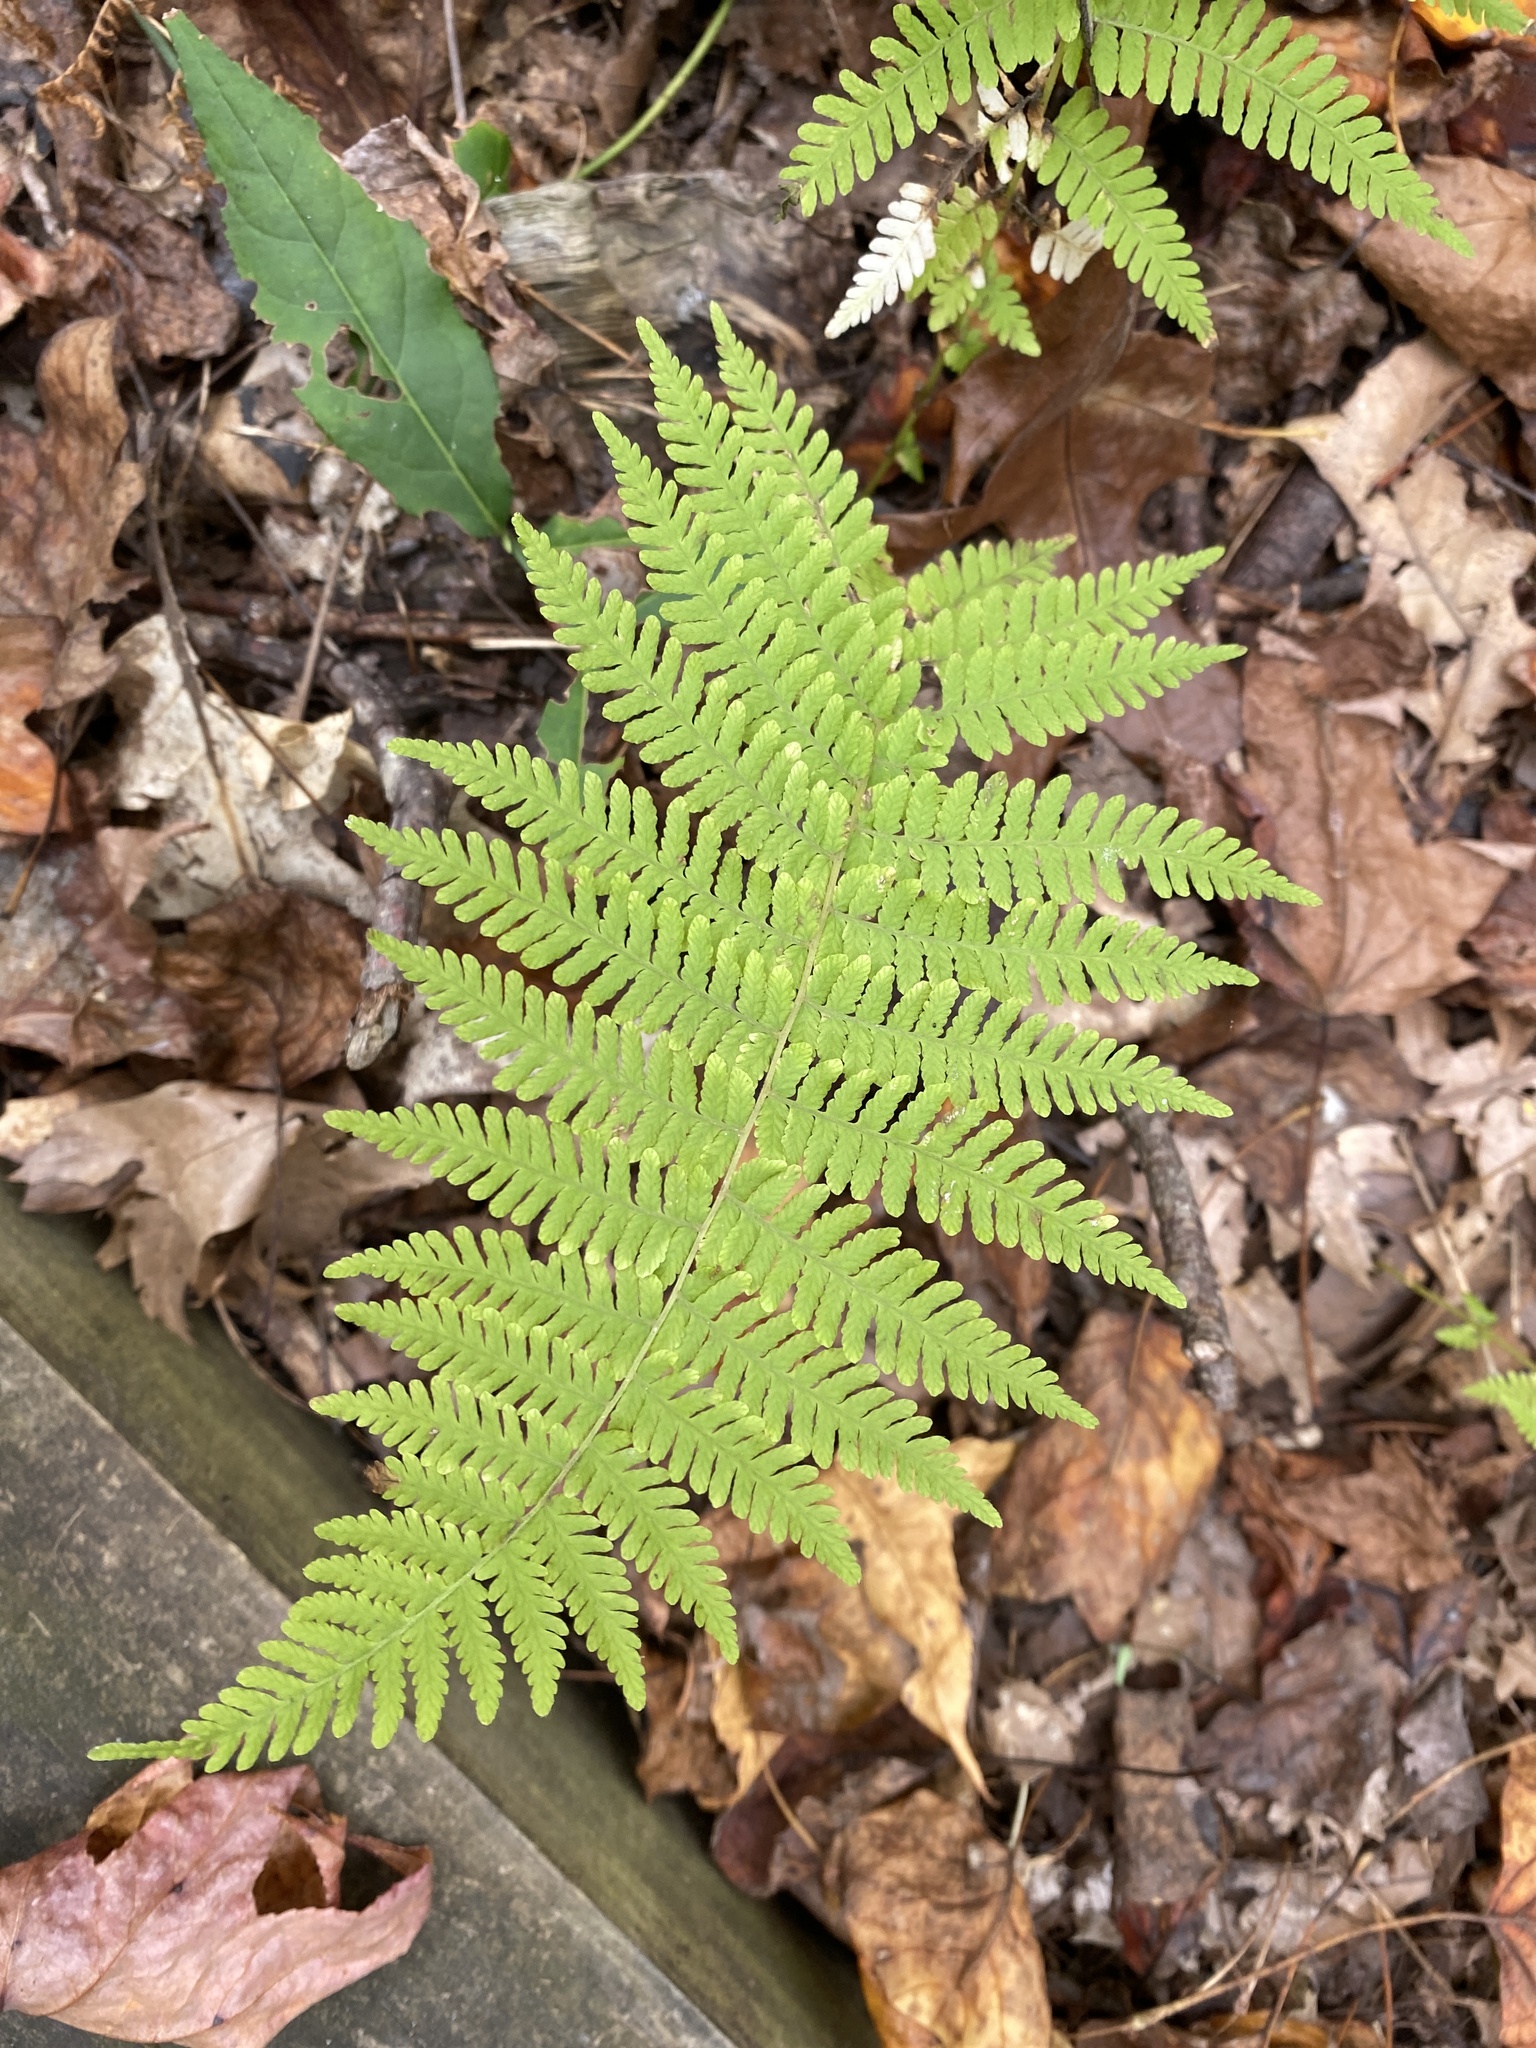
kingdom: Plantae
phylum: Tracheophyta
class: Polypodiopsida
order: Polypodiales
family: Thelypteridaceae
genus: Amauropelta
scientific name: Amauropelta noveboracensis
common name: New york fern
